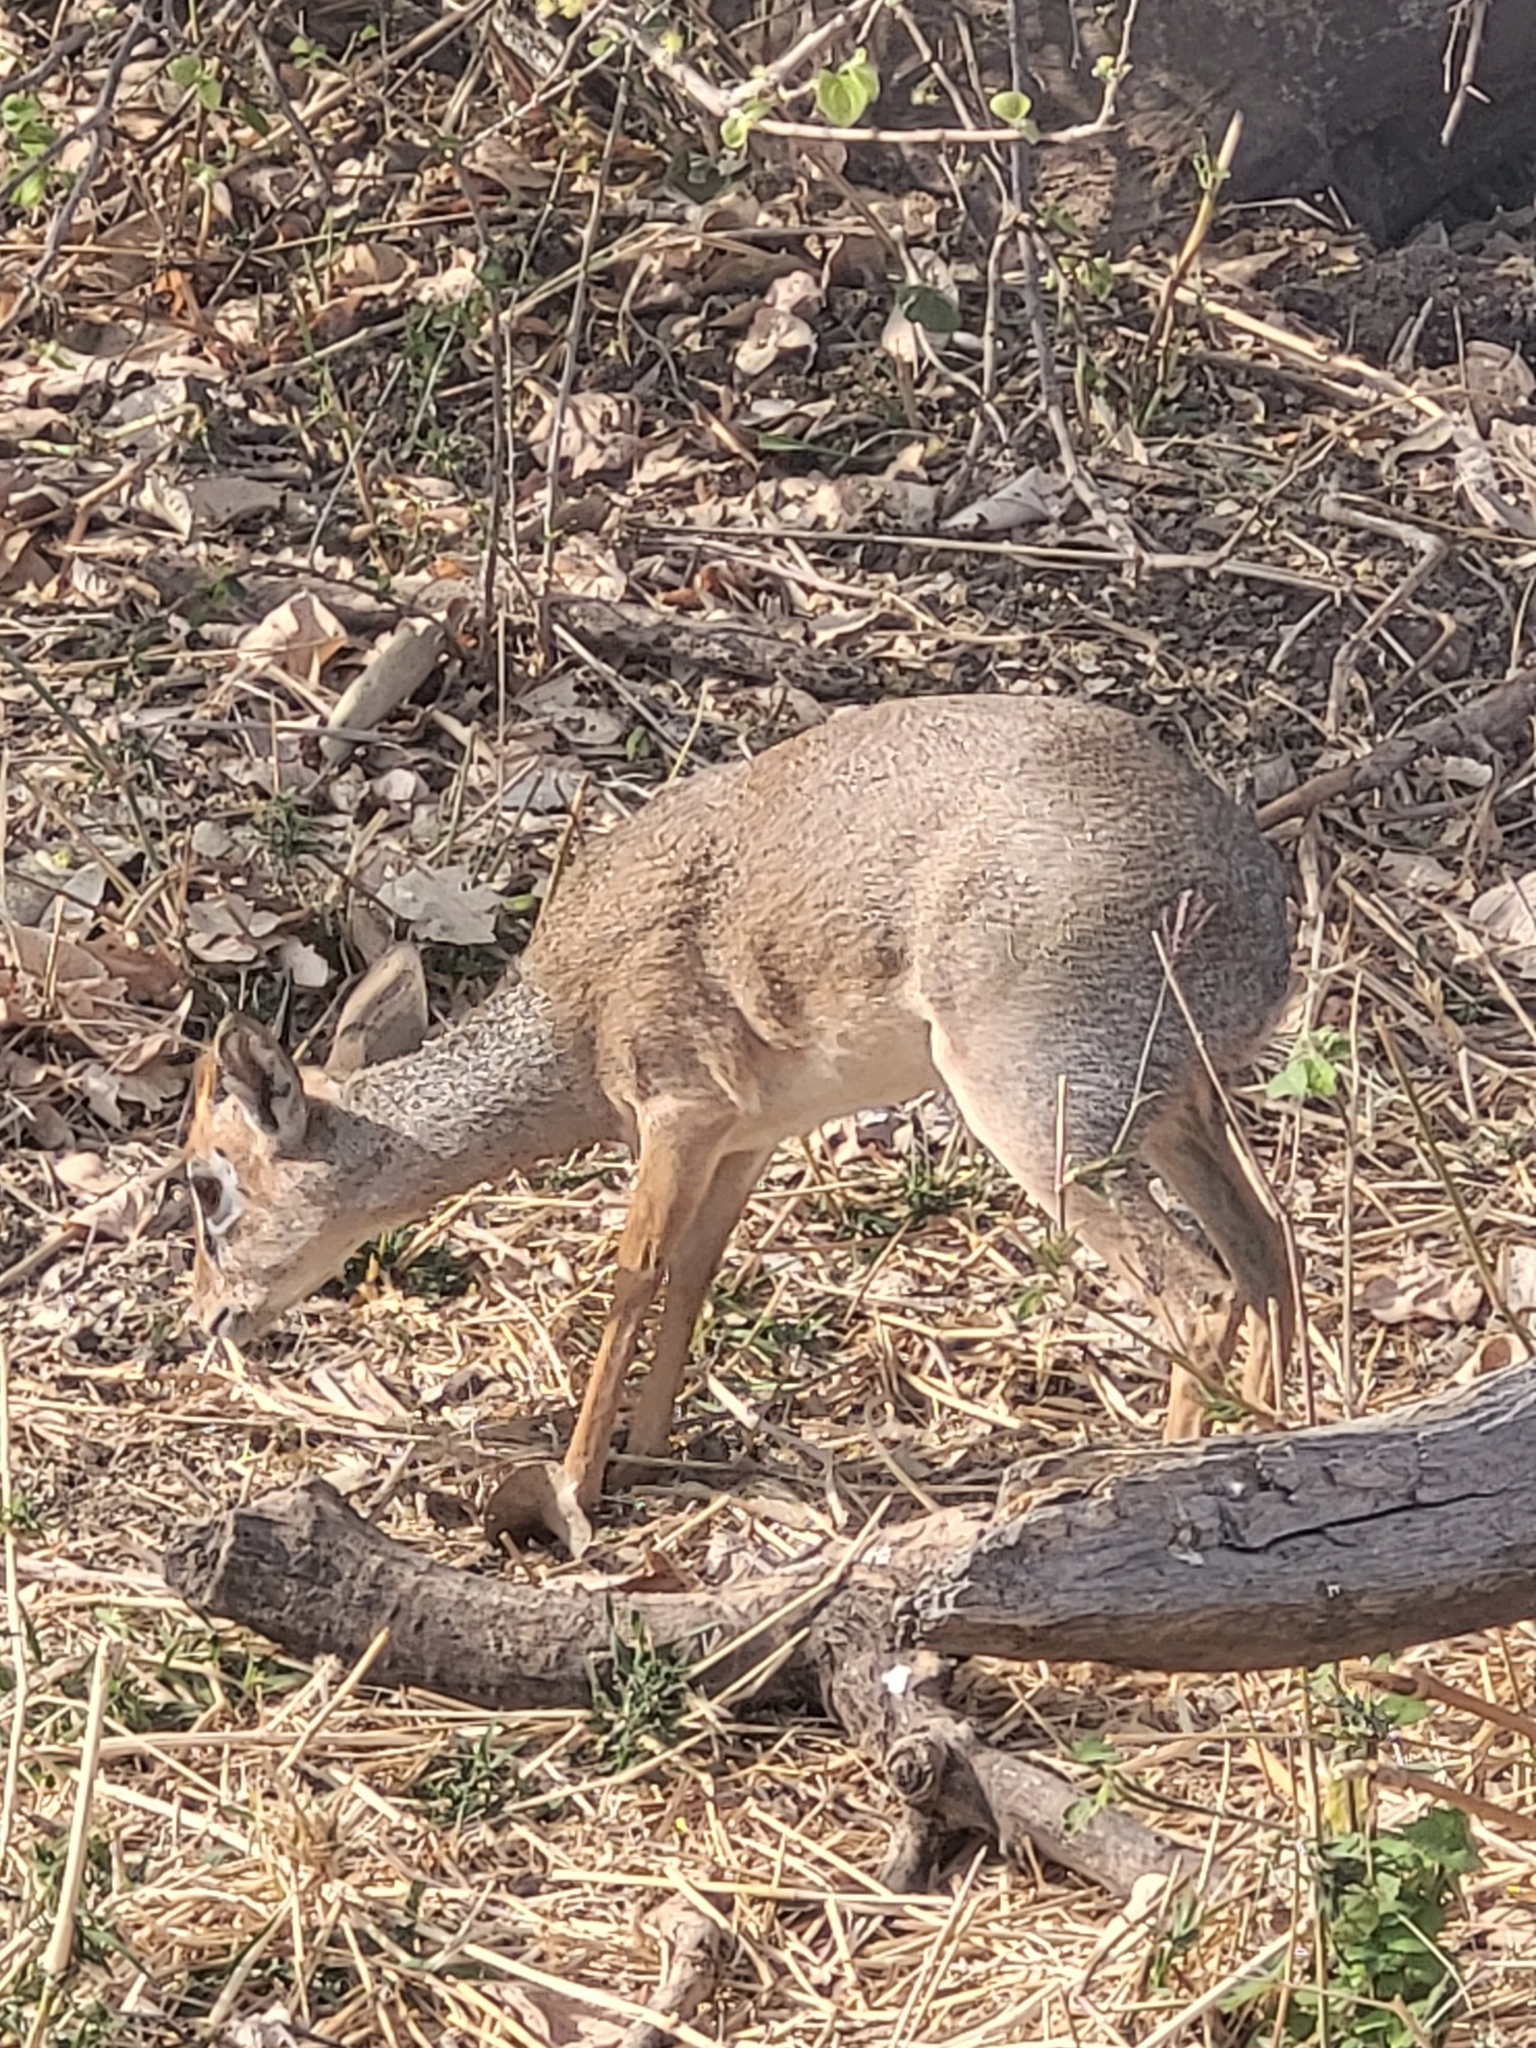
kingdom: Animalia
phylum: Chordata
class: Mammalia
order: Artiodactyla
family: Bovidae
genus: Madoqua
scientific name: Madoqua
